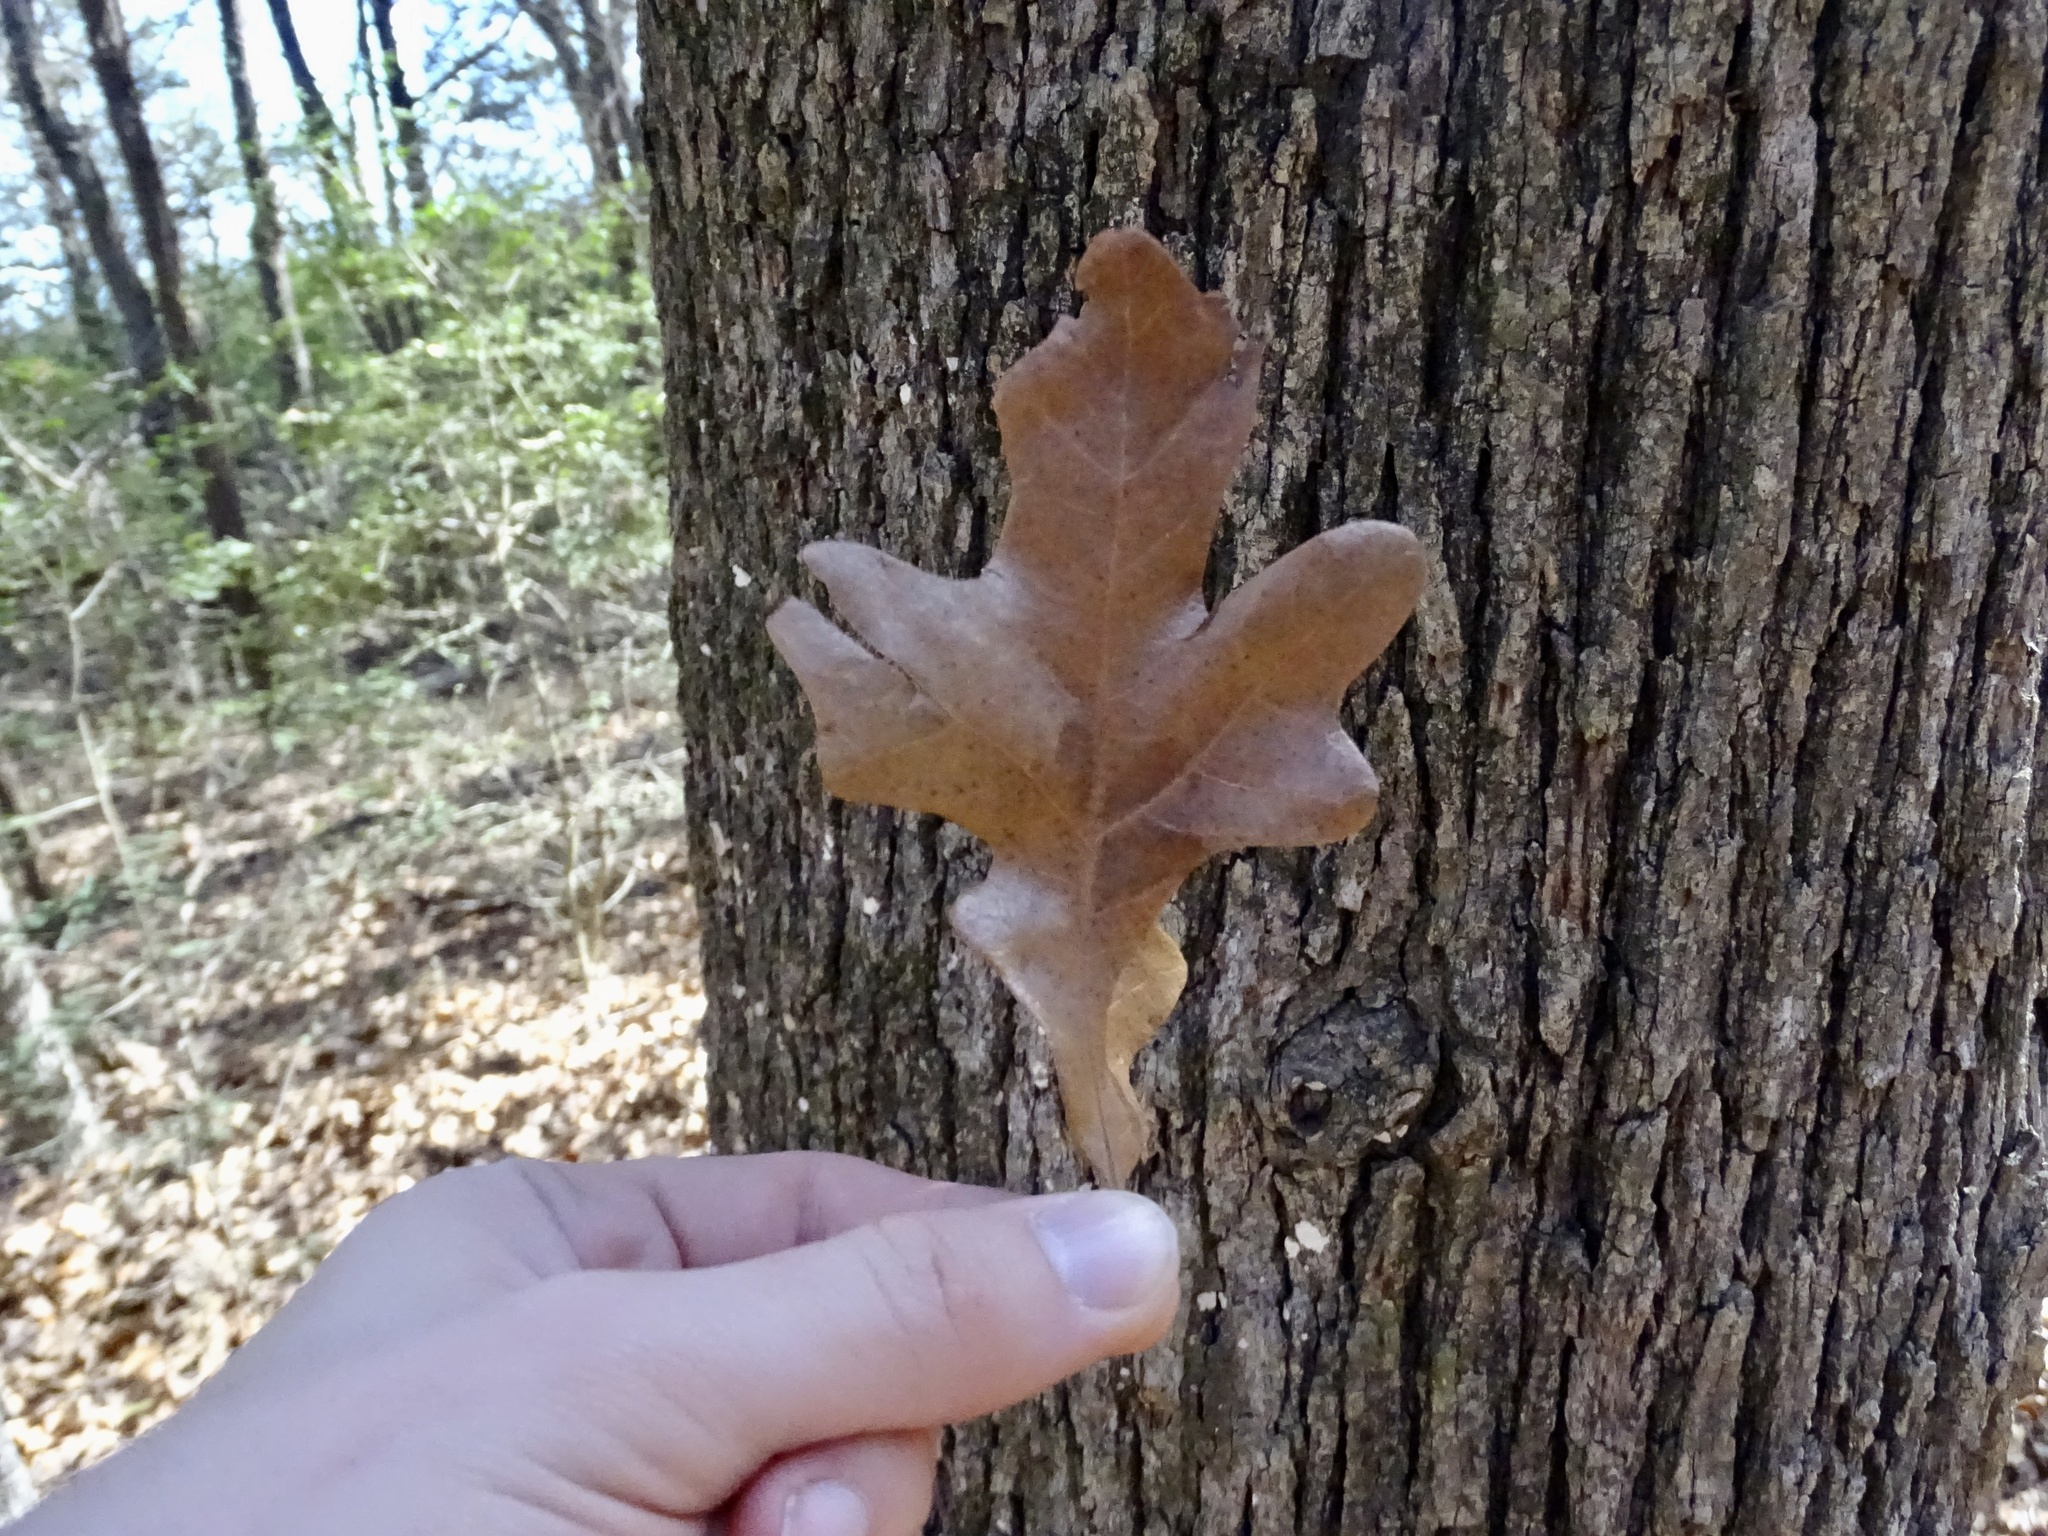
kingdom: Plantae
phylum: Tracheophyta
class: Magnoliopsida
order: Fagales
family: Fagaceae
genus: Quercus
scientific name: Quercus stellata
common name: Post oak
